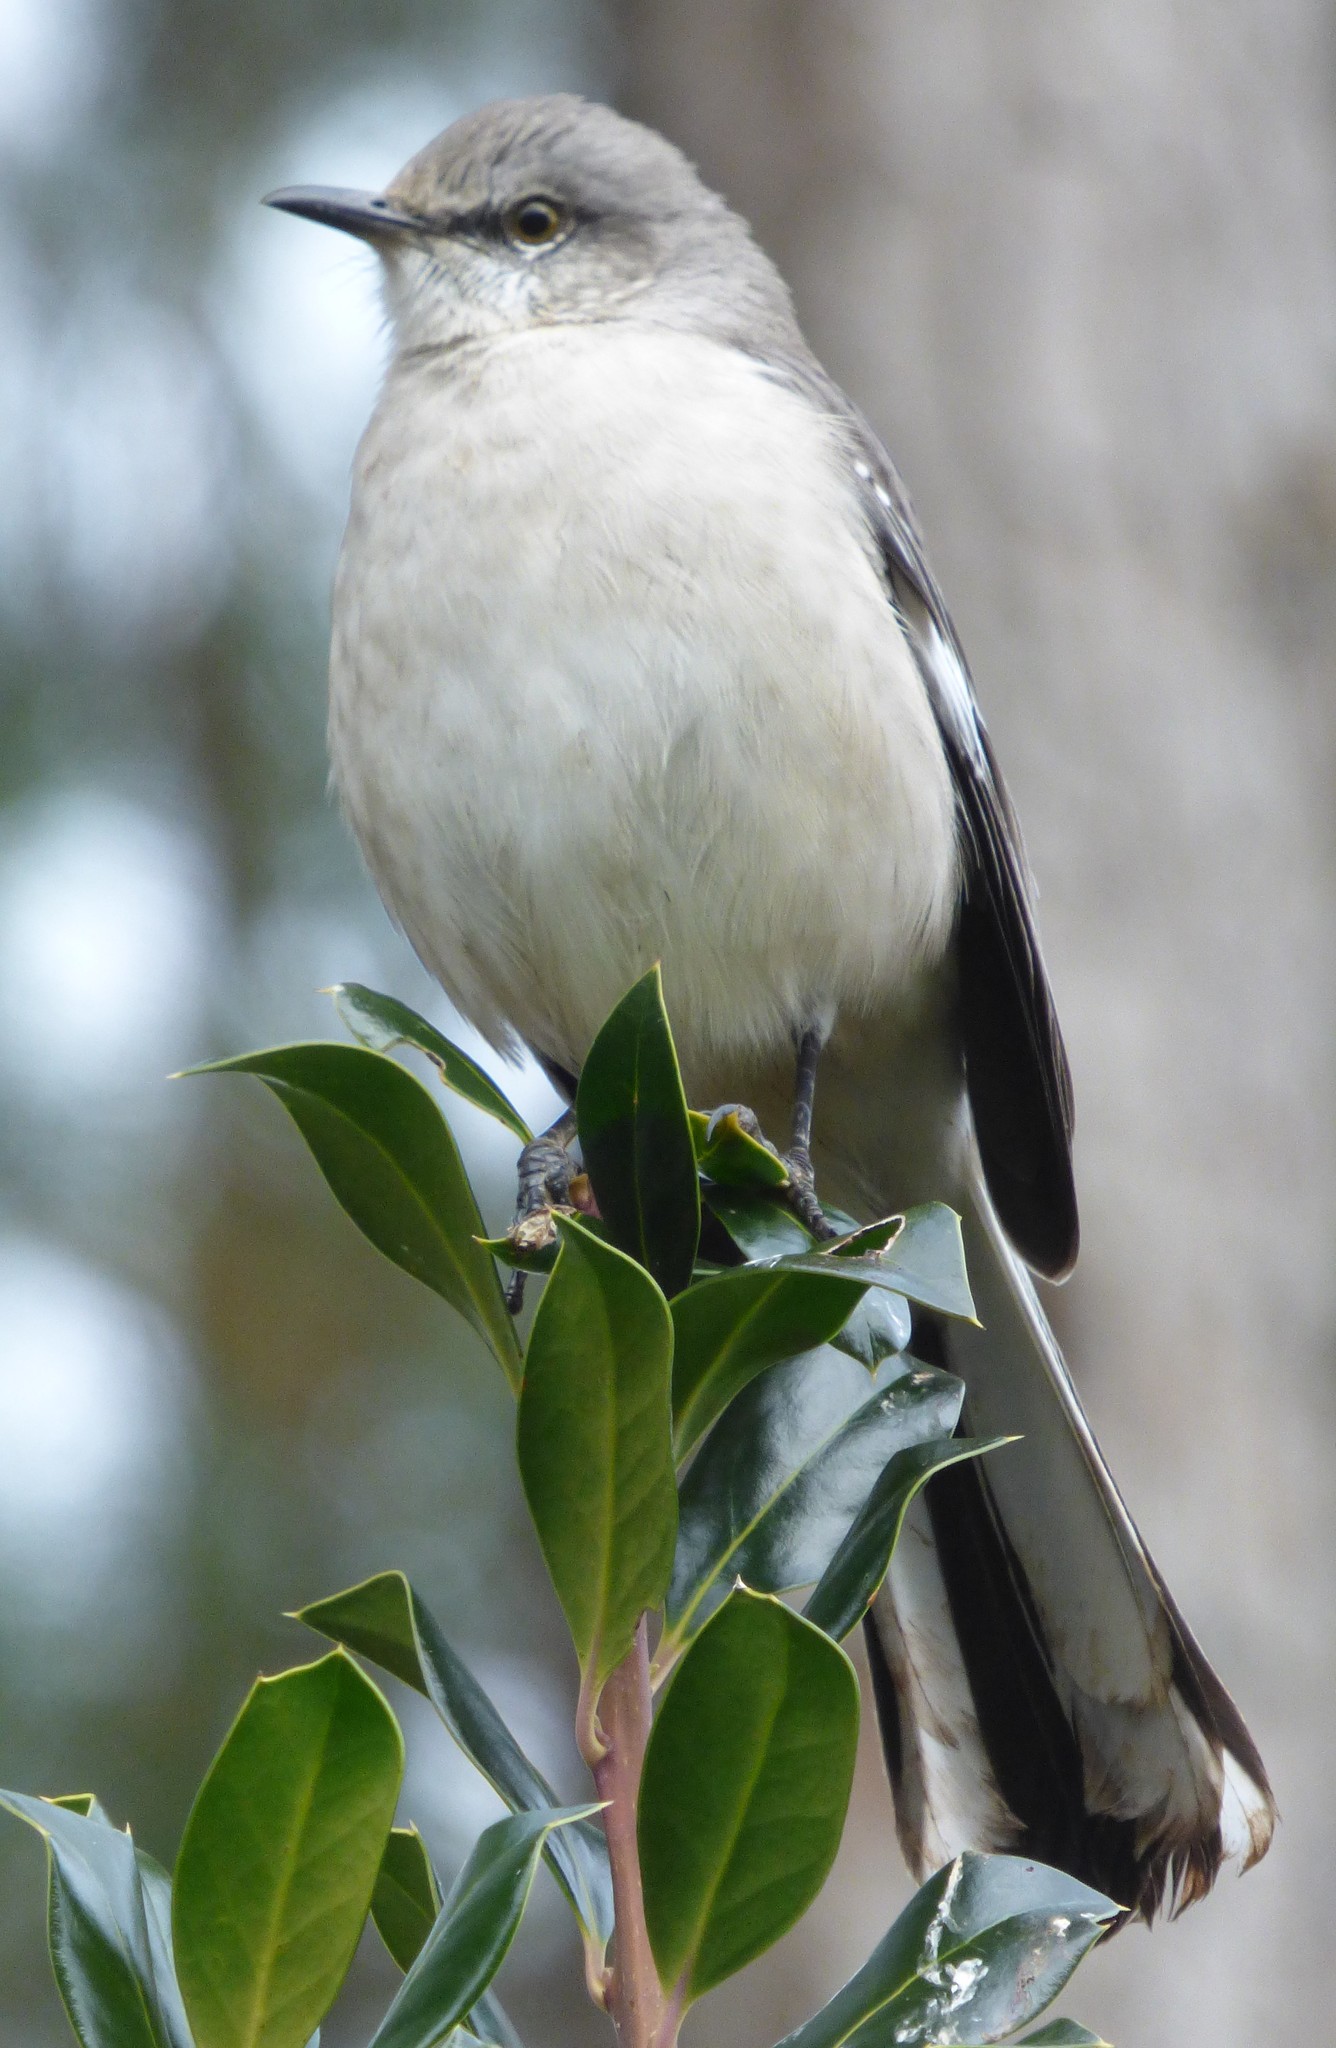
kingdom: Animalia
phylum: Chordata
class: Aves
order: Passeriformes
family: Mimidae
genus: Mimus
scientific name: Mimus polyglottos
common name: Northern mockingbird
